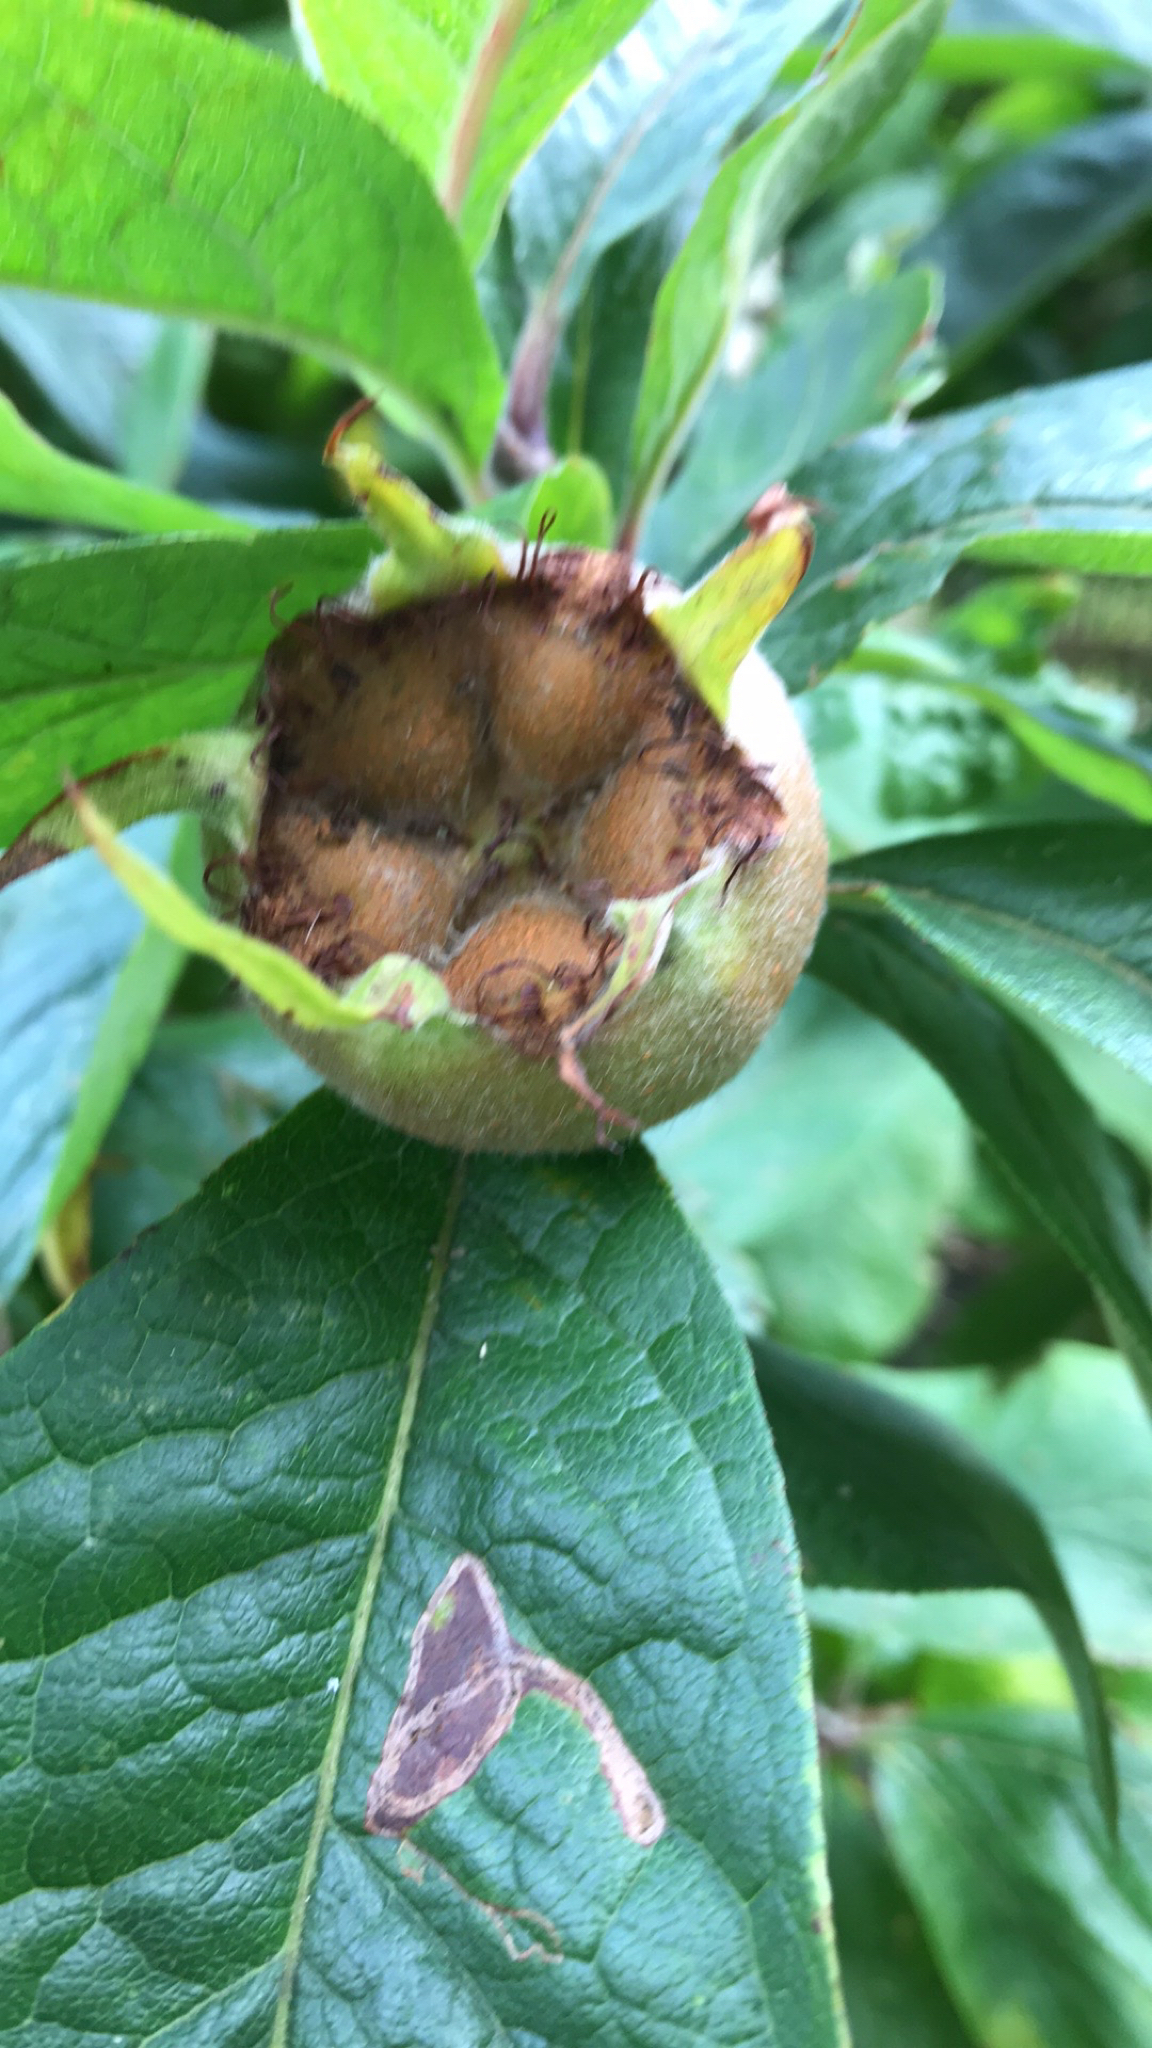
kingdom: Plantae
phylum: Tracheophyta
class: Magnoliopsida
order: Rosales
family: Rosaceae
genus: Mespilus
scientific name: Mespilus germanica
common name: Medlar
